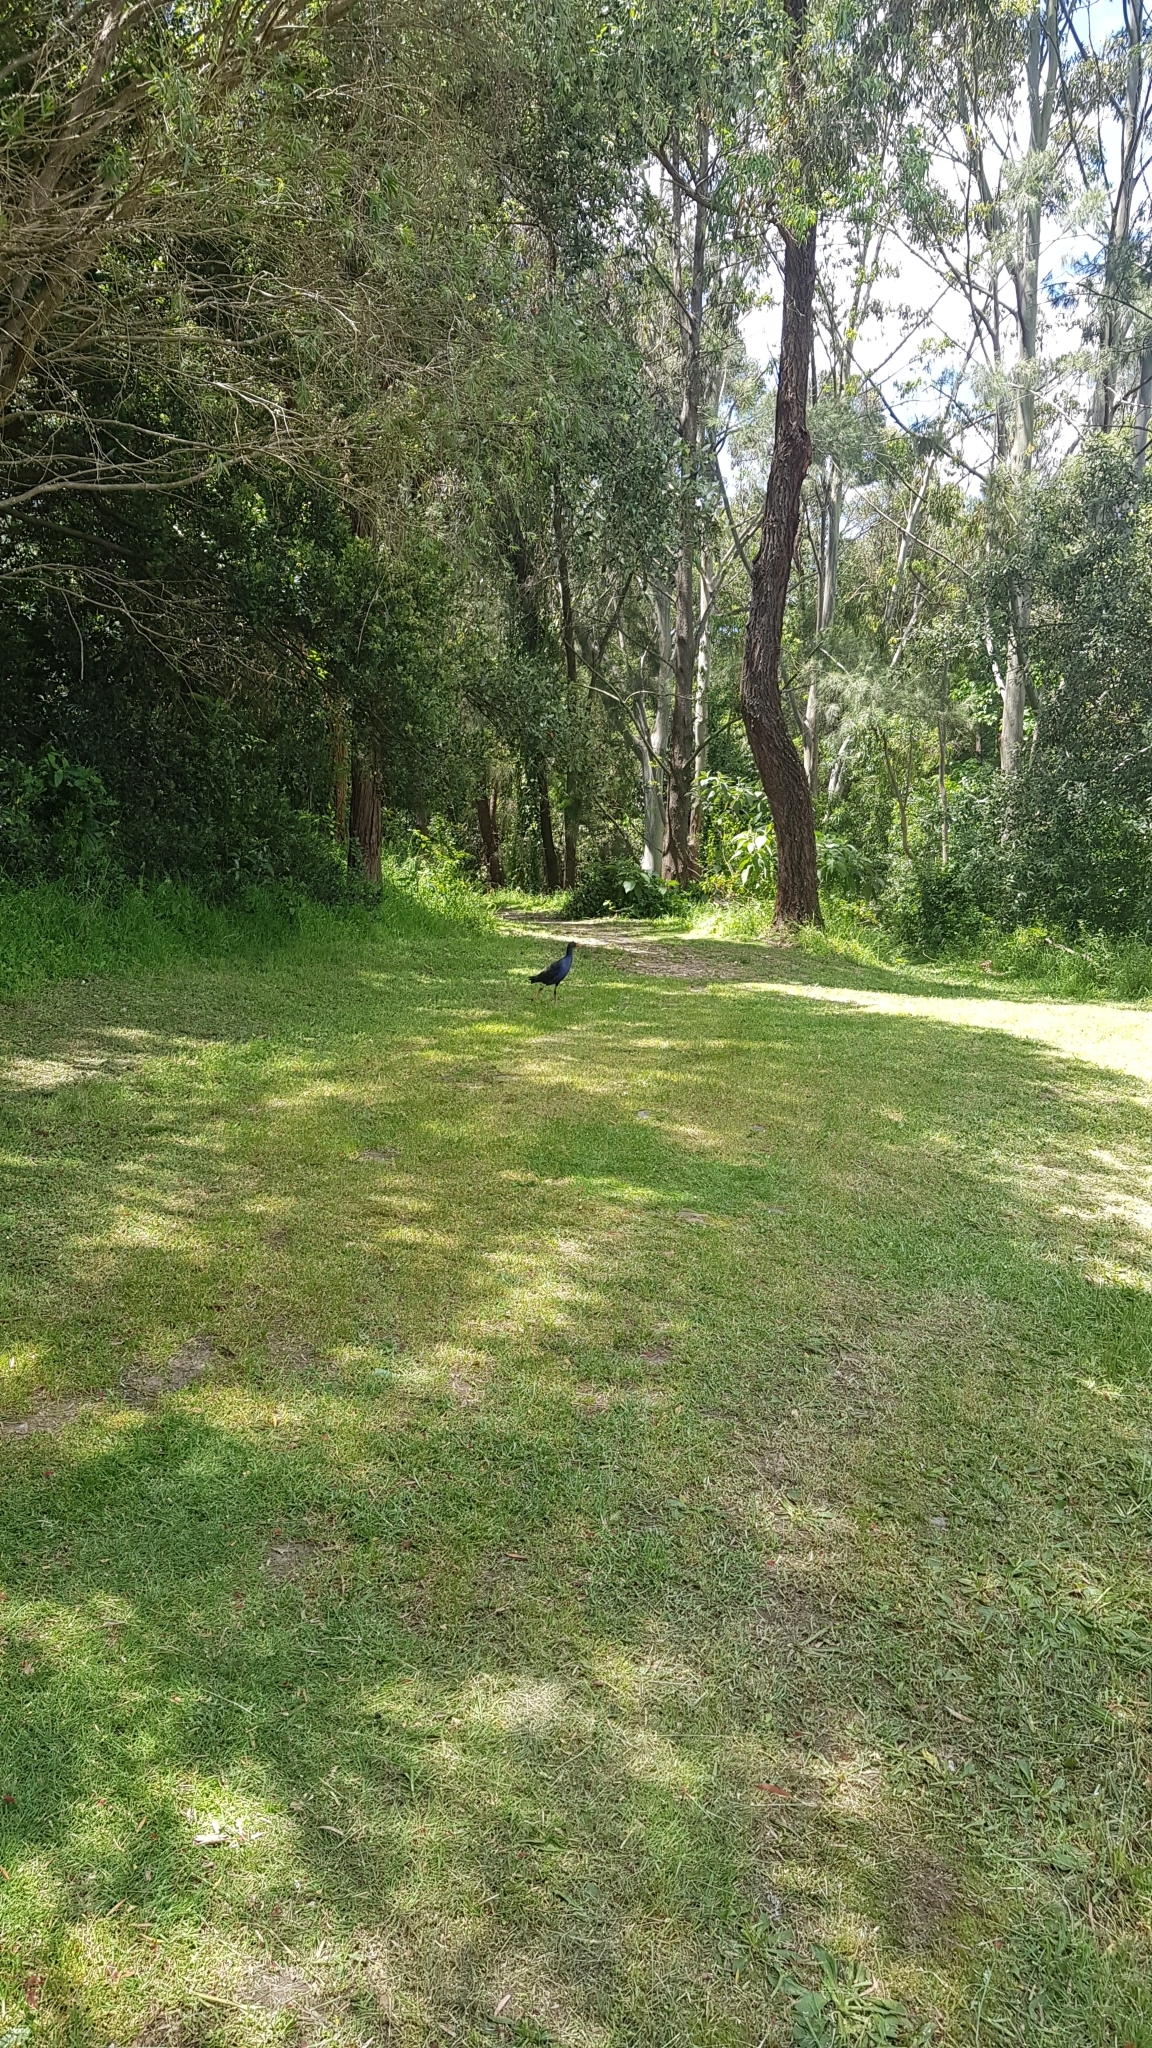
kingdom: Animalia
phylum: Chordata
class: Aves
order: Gruiformes
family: Rallidae
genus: Porphyrio
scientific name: Porphyrio melanotus
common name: Australasian swamphen
